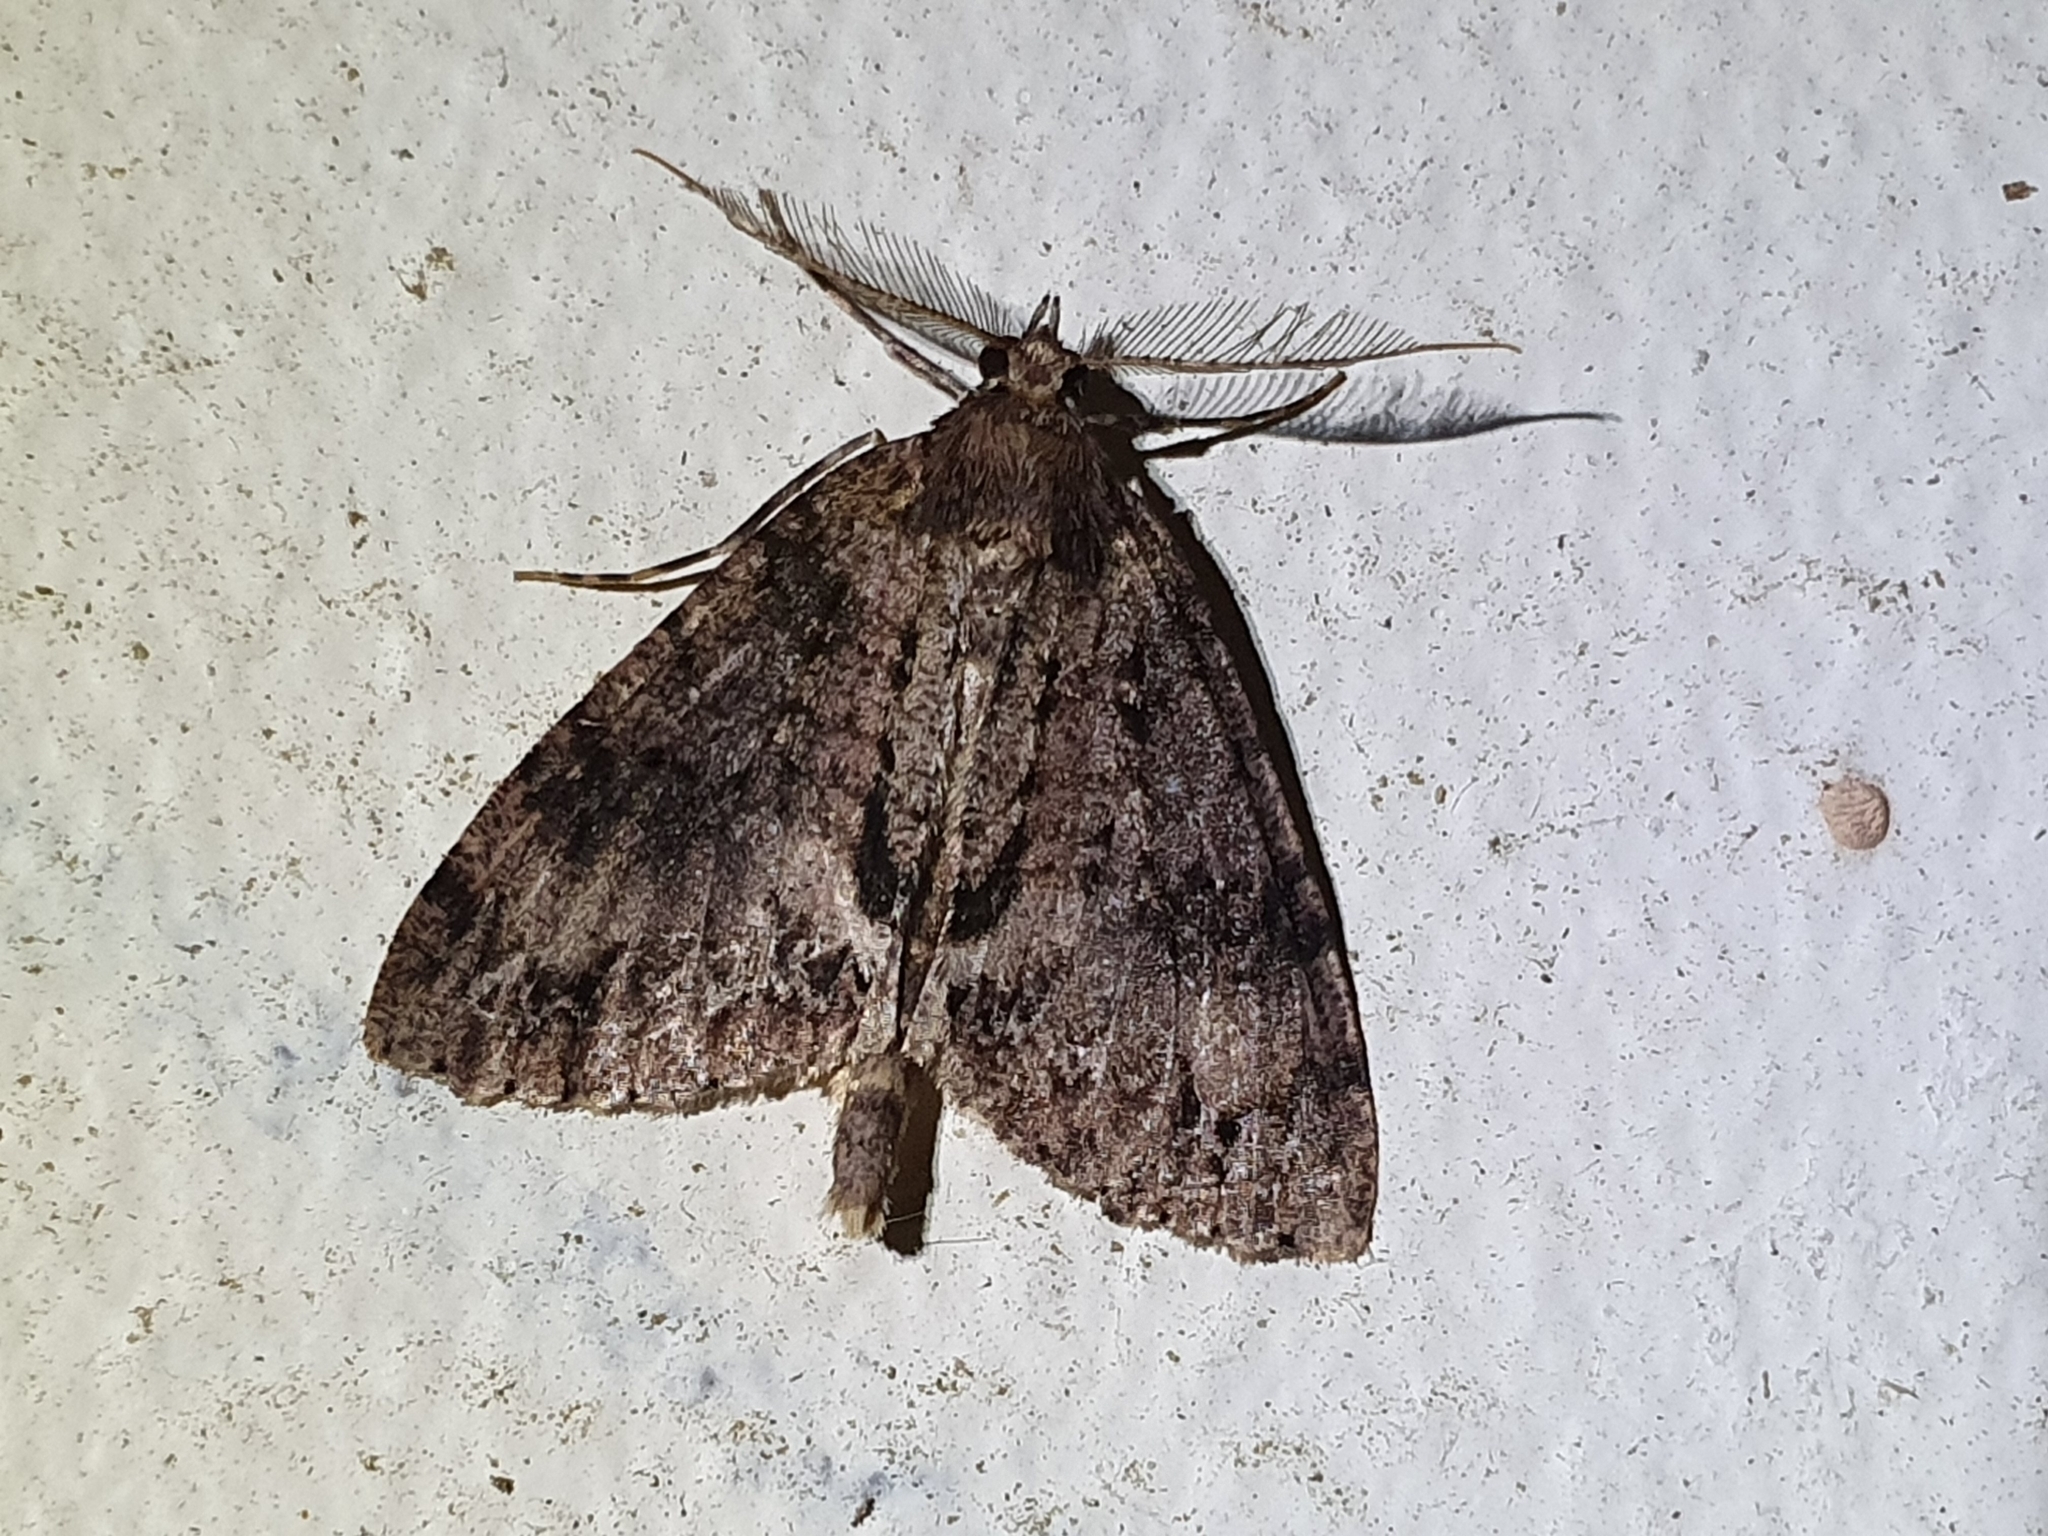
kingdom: Animalia
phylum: Arthropoda
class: Insecta
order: Lepidoptera
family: Geometridae
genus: Pseudocoremia
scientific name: Pseudocoremia suavis
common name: Common forest looper
